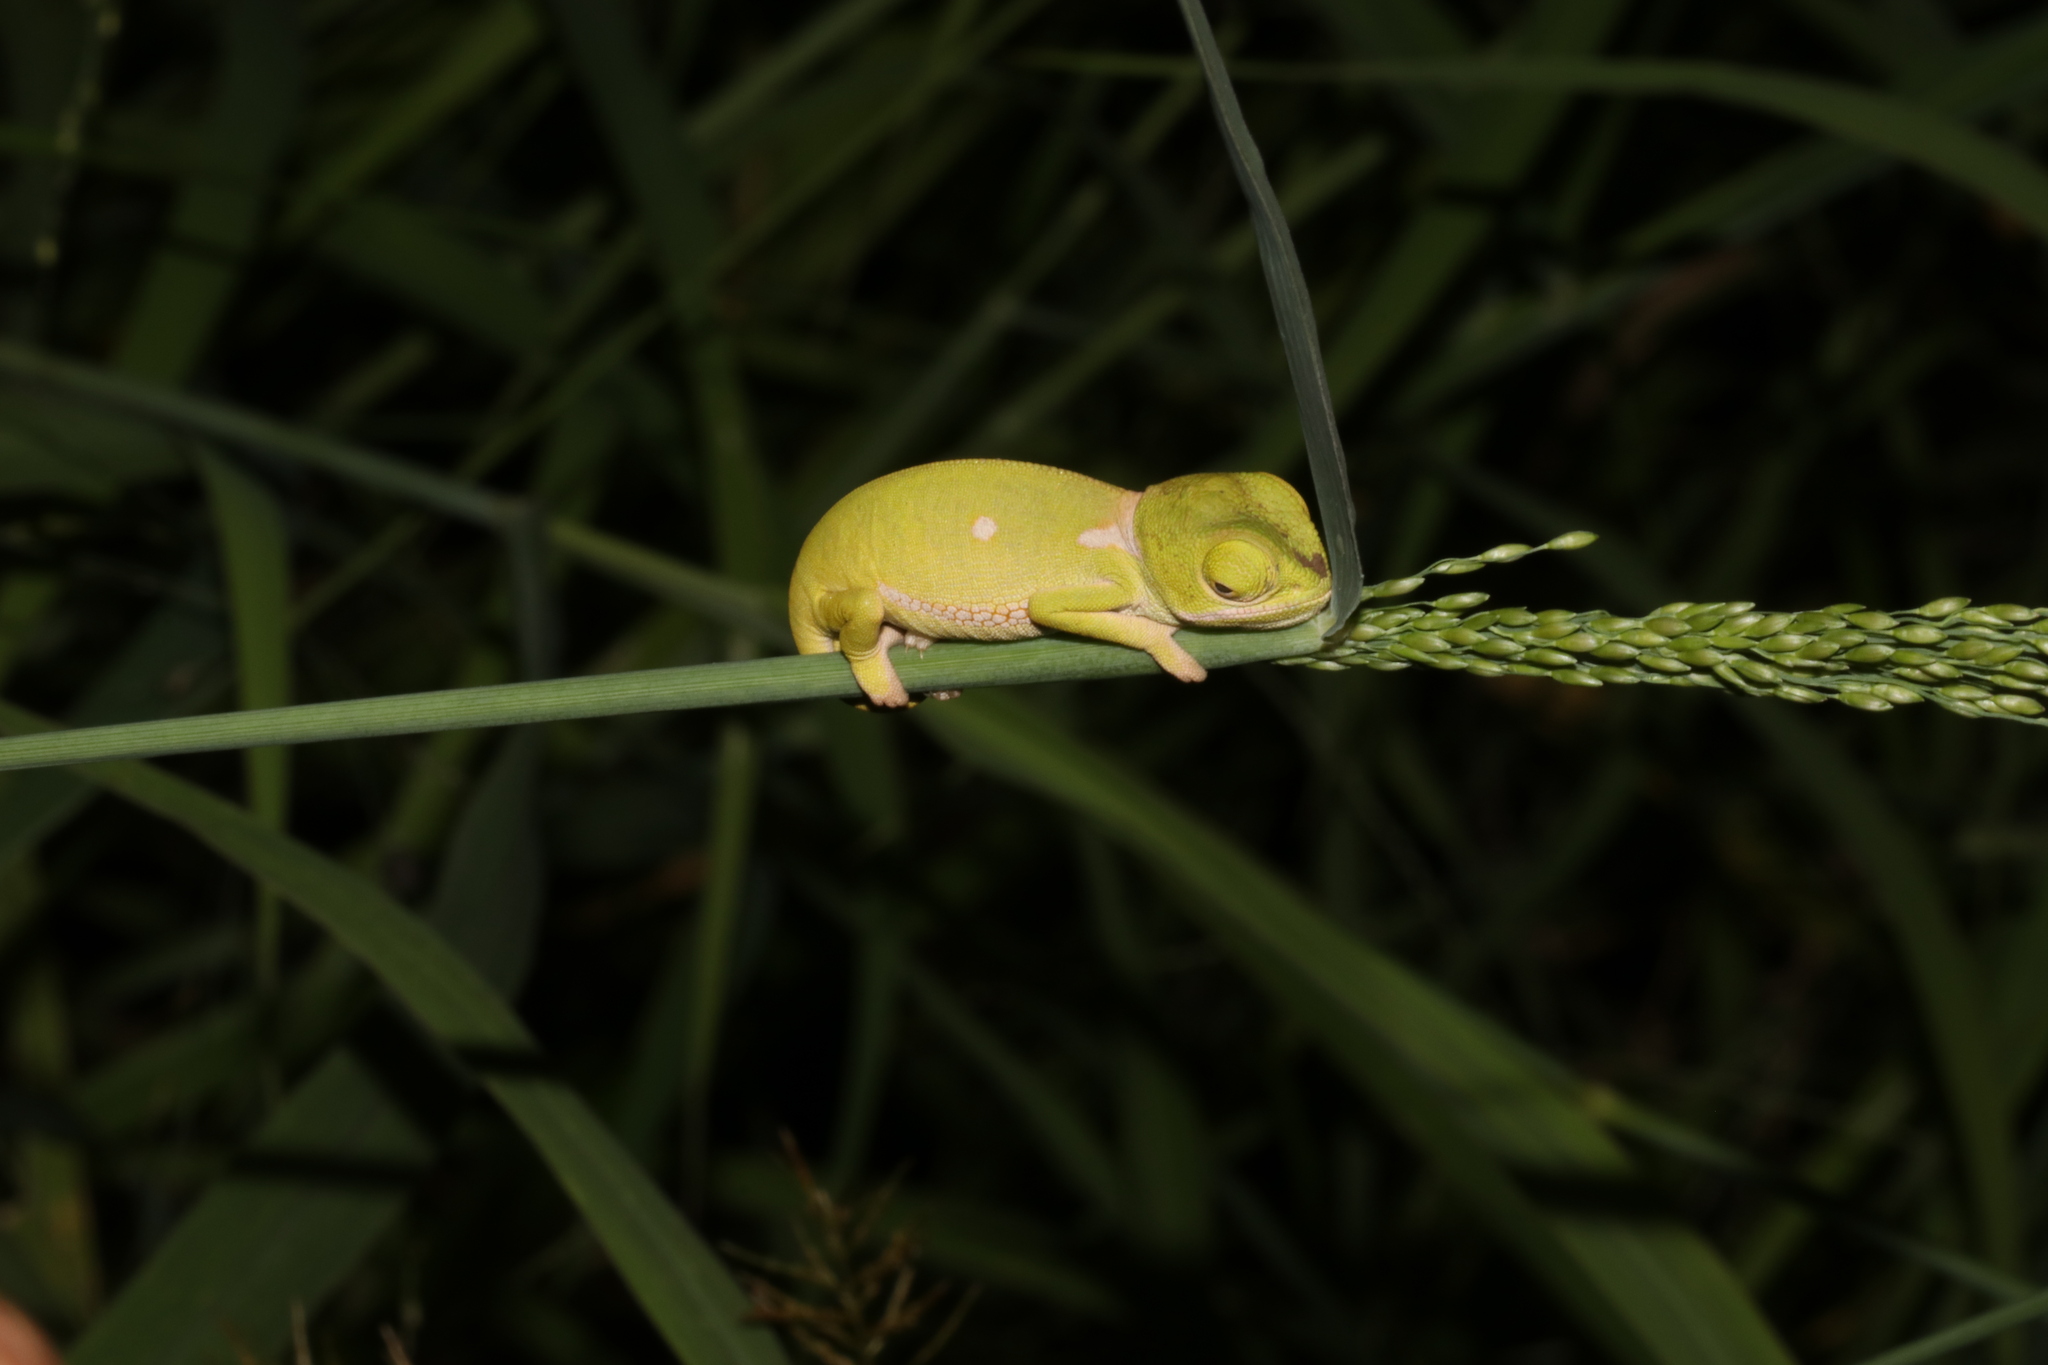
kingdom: Animalia
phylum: Chordata
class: Squamata
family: Chamaeleonidae
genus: Chamaeleo
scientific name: Chamaeleo dilepis
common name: Flapneck chameleon
